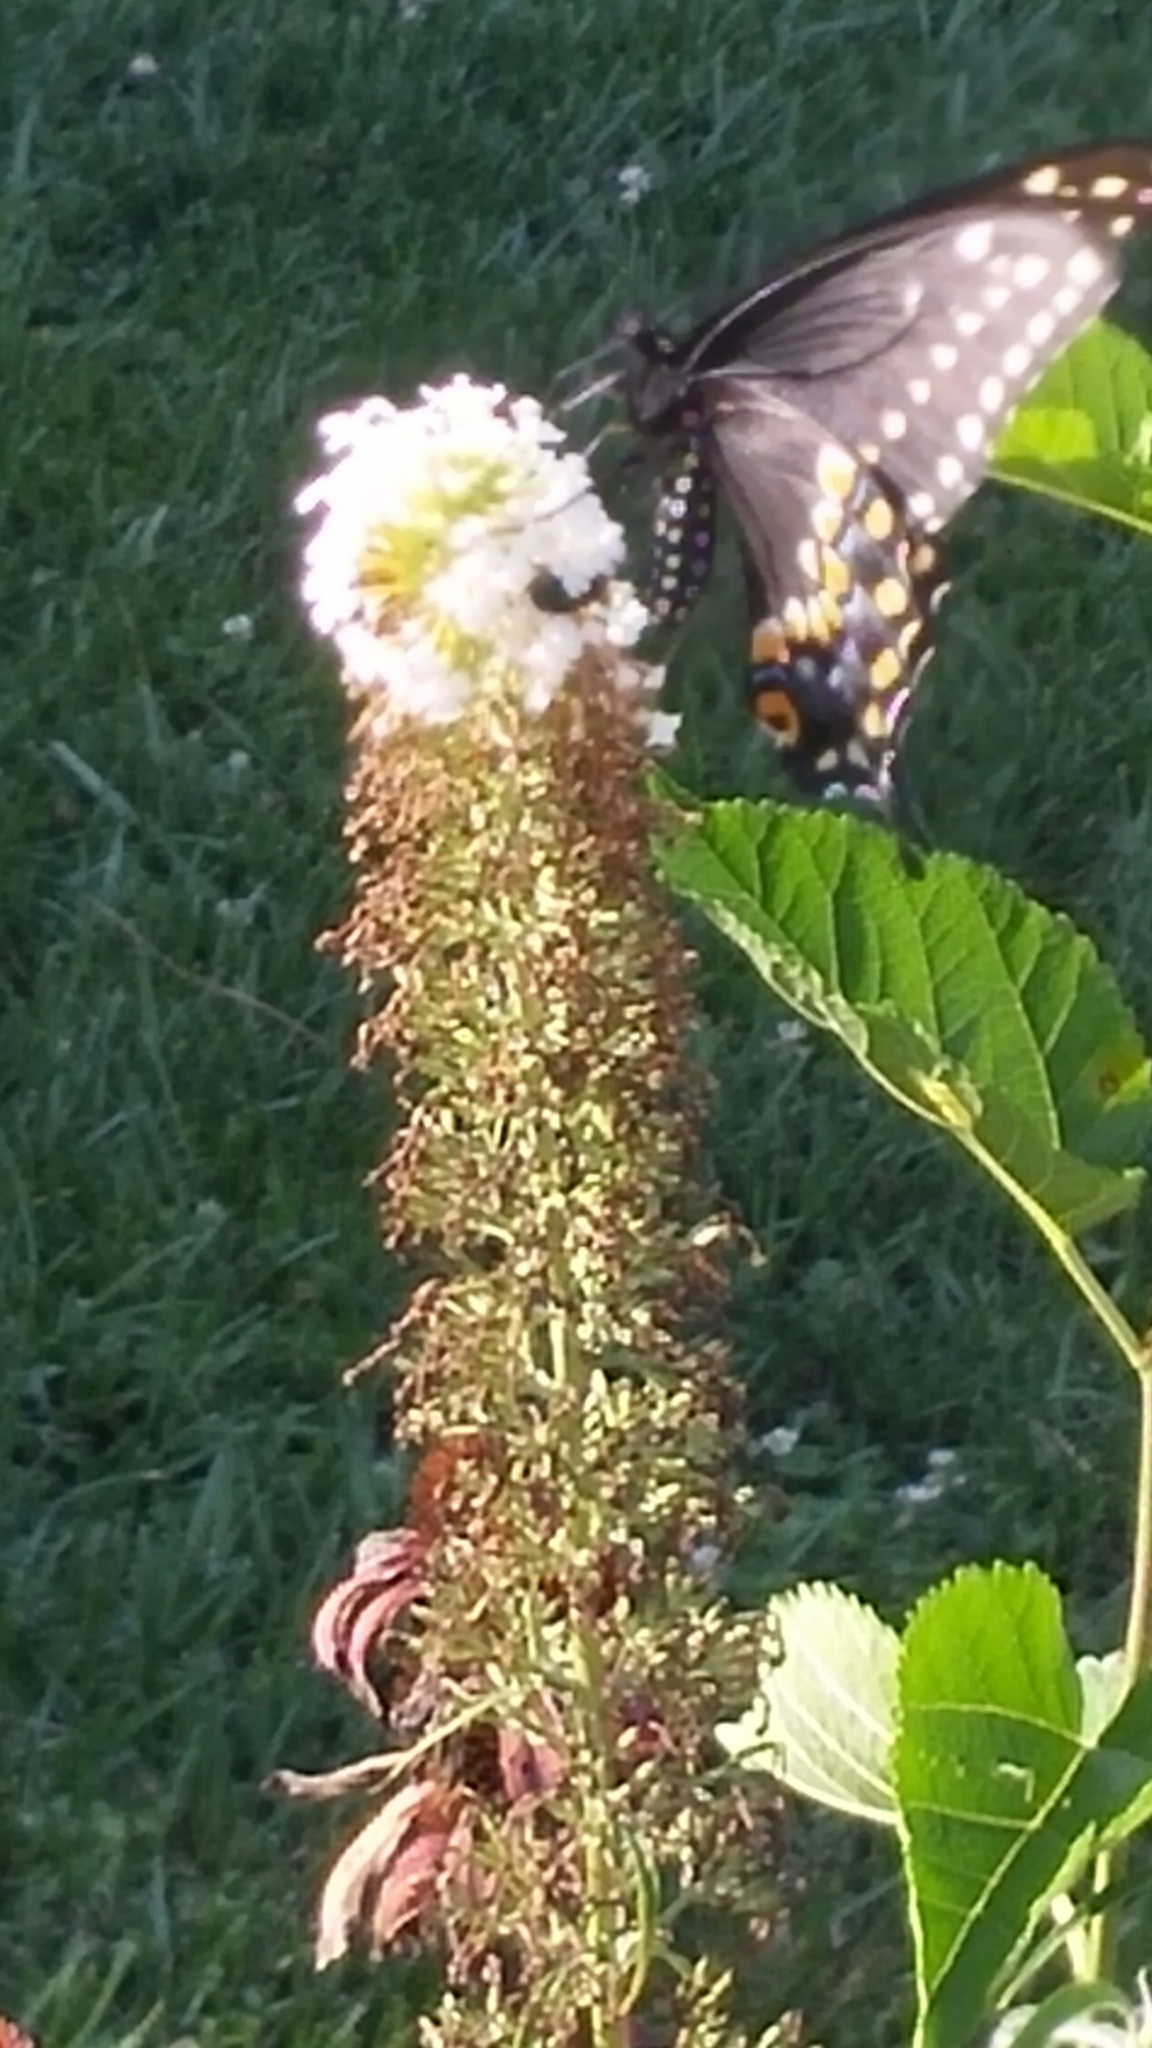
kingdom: Animalia
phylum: Arthropoda
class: Insecta
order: Lepidoptera
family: Papilionidae
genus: Papilio
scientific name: Papilio polyxenes
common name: Black swallowtail
